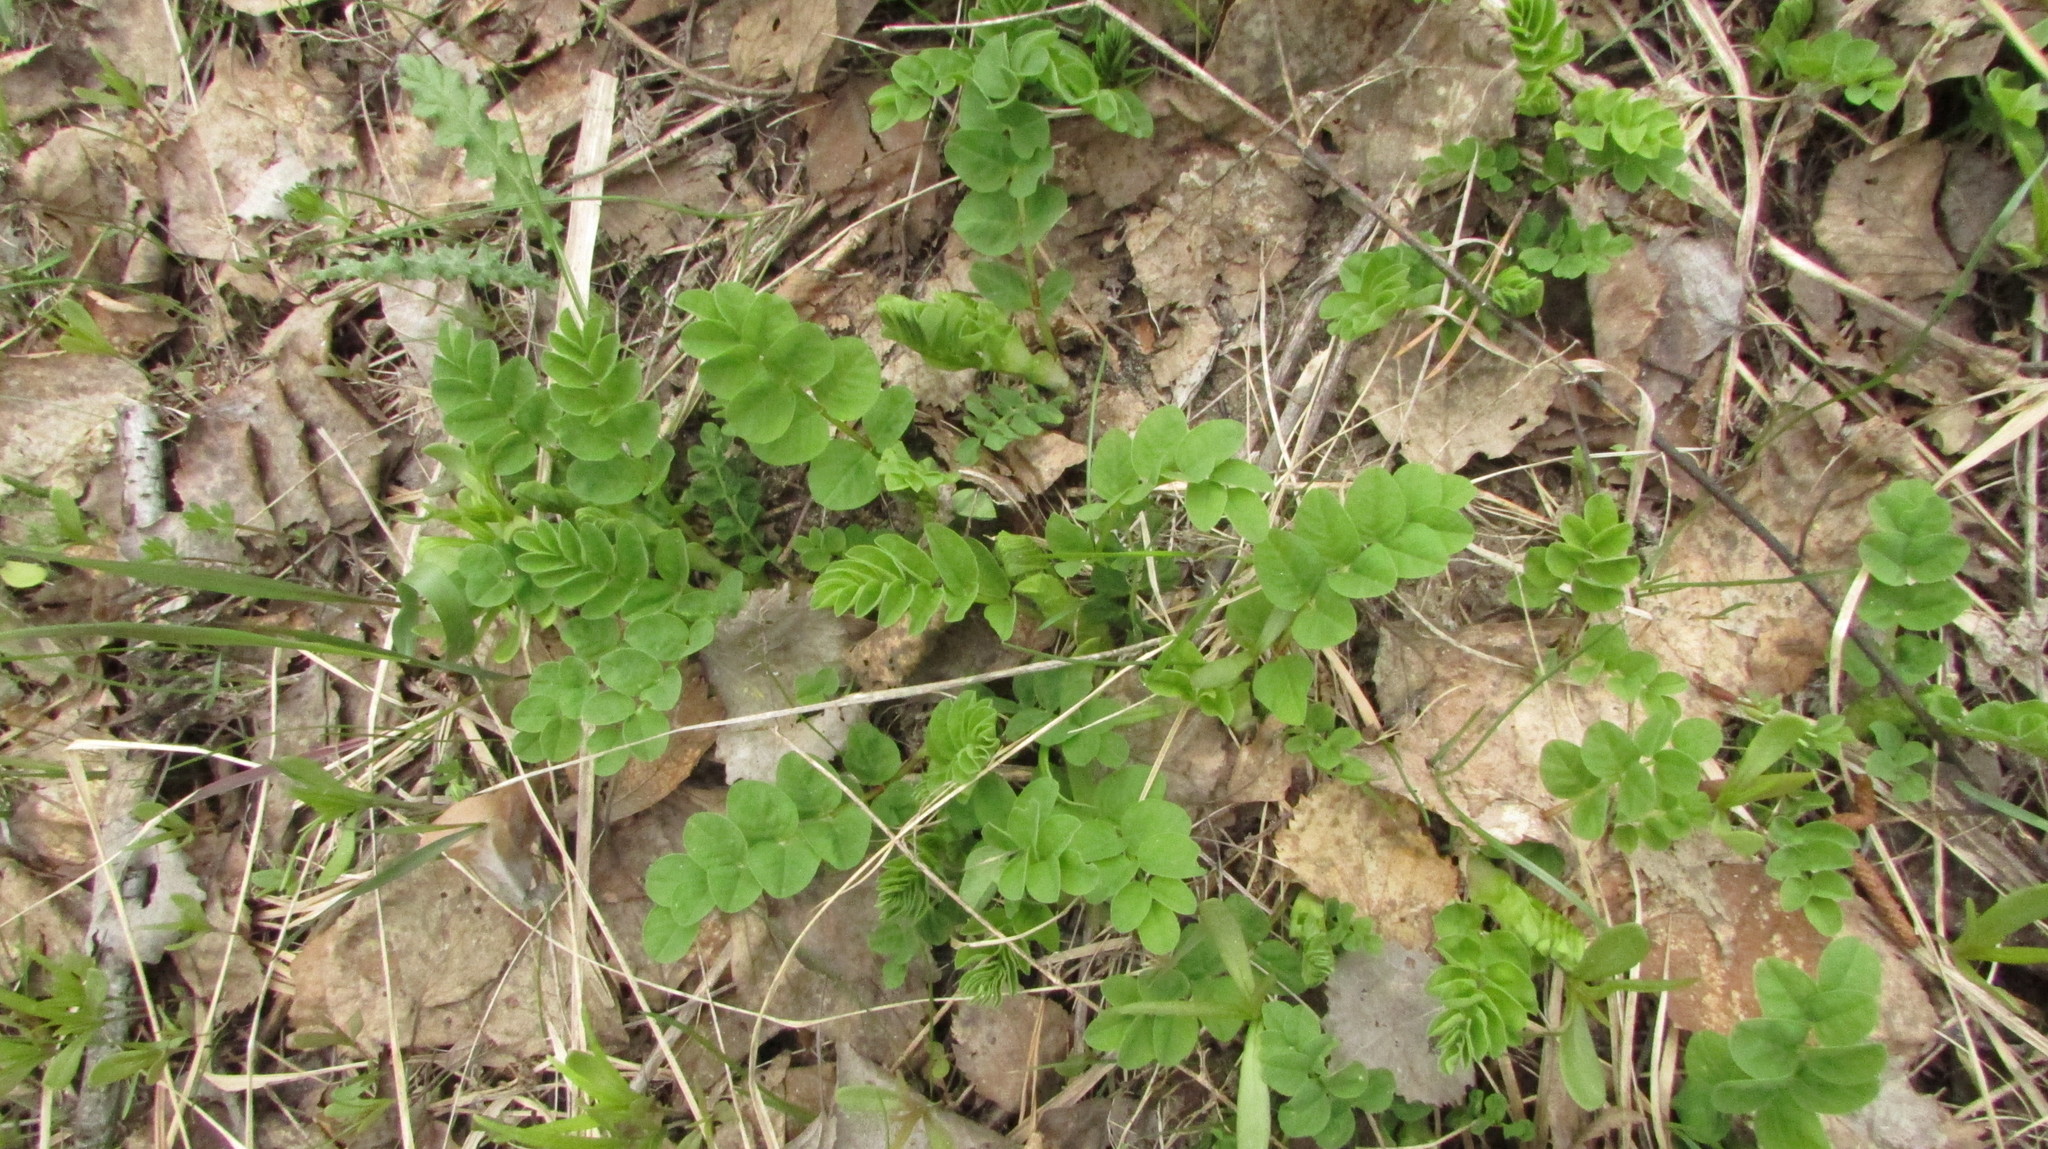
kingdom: Plantae
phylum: Tracheophyta
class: Magnoliopsida
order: Fabales
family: Fabaceae
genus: Astragalus
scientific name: Astragalus glycyphyllos
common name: Wild liquorice
